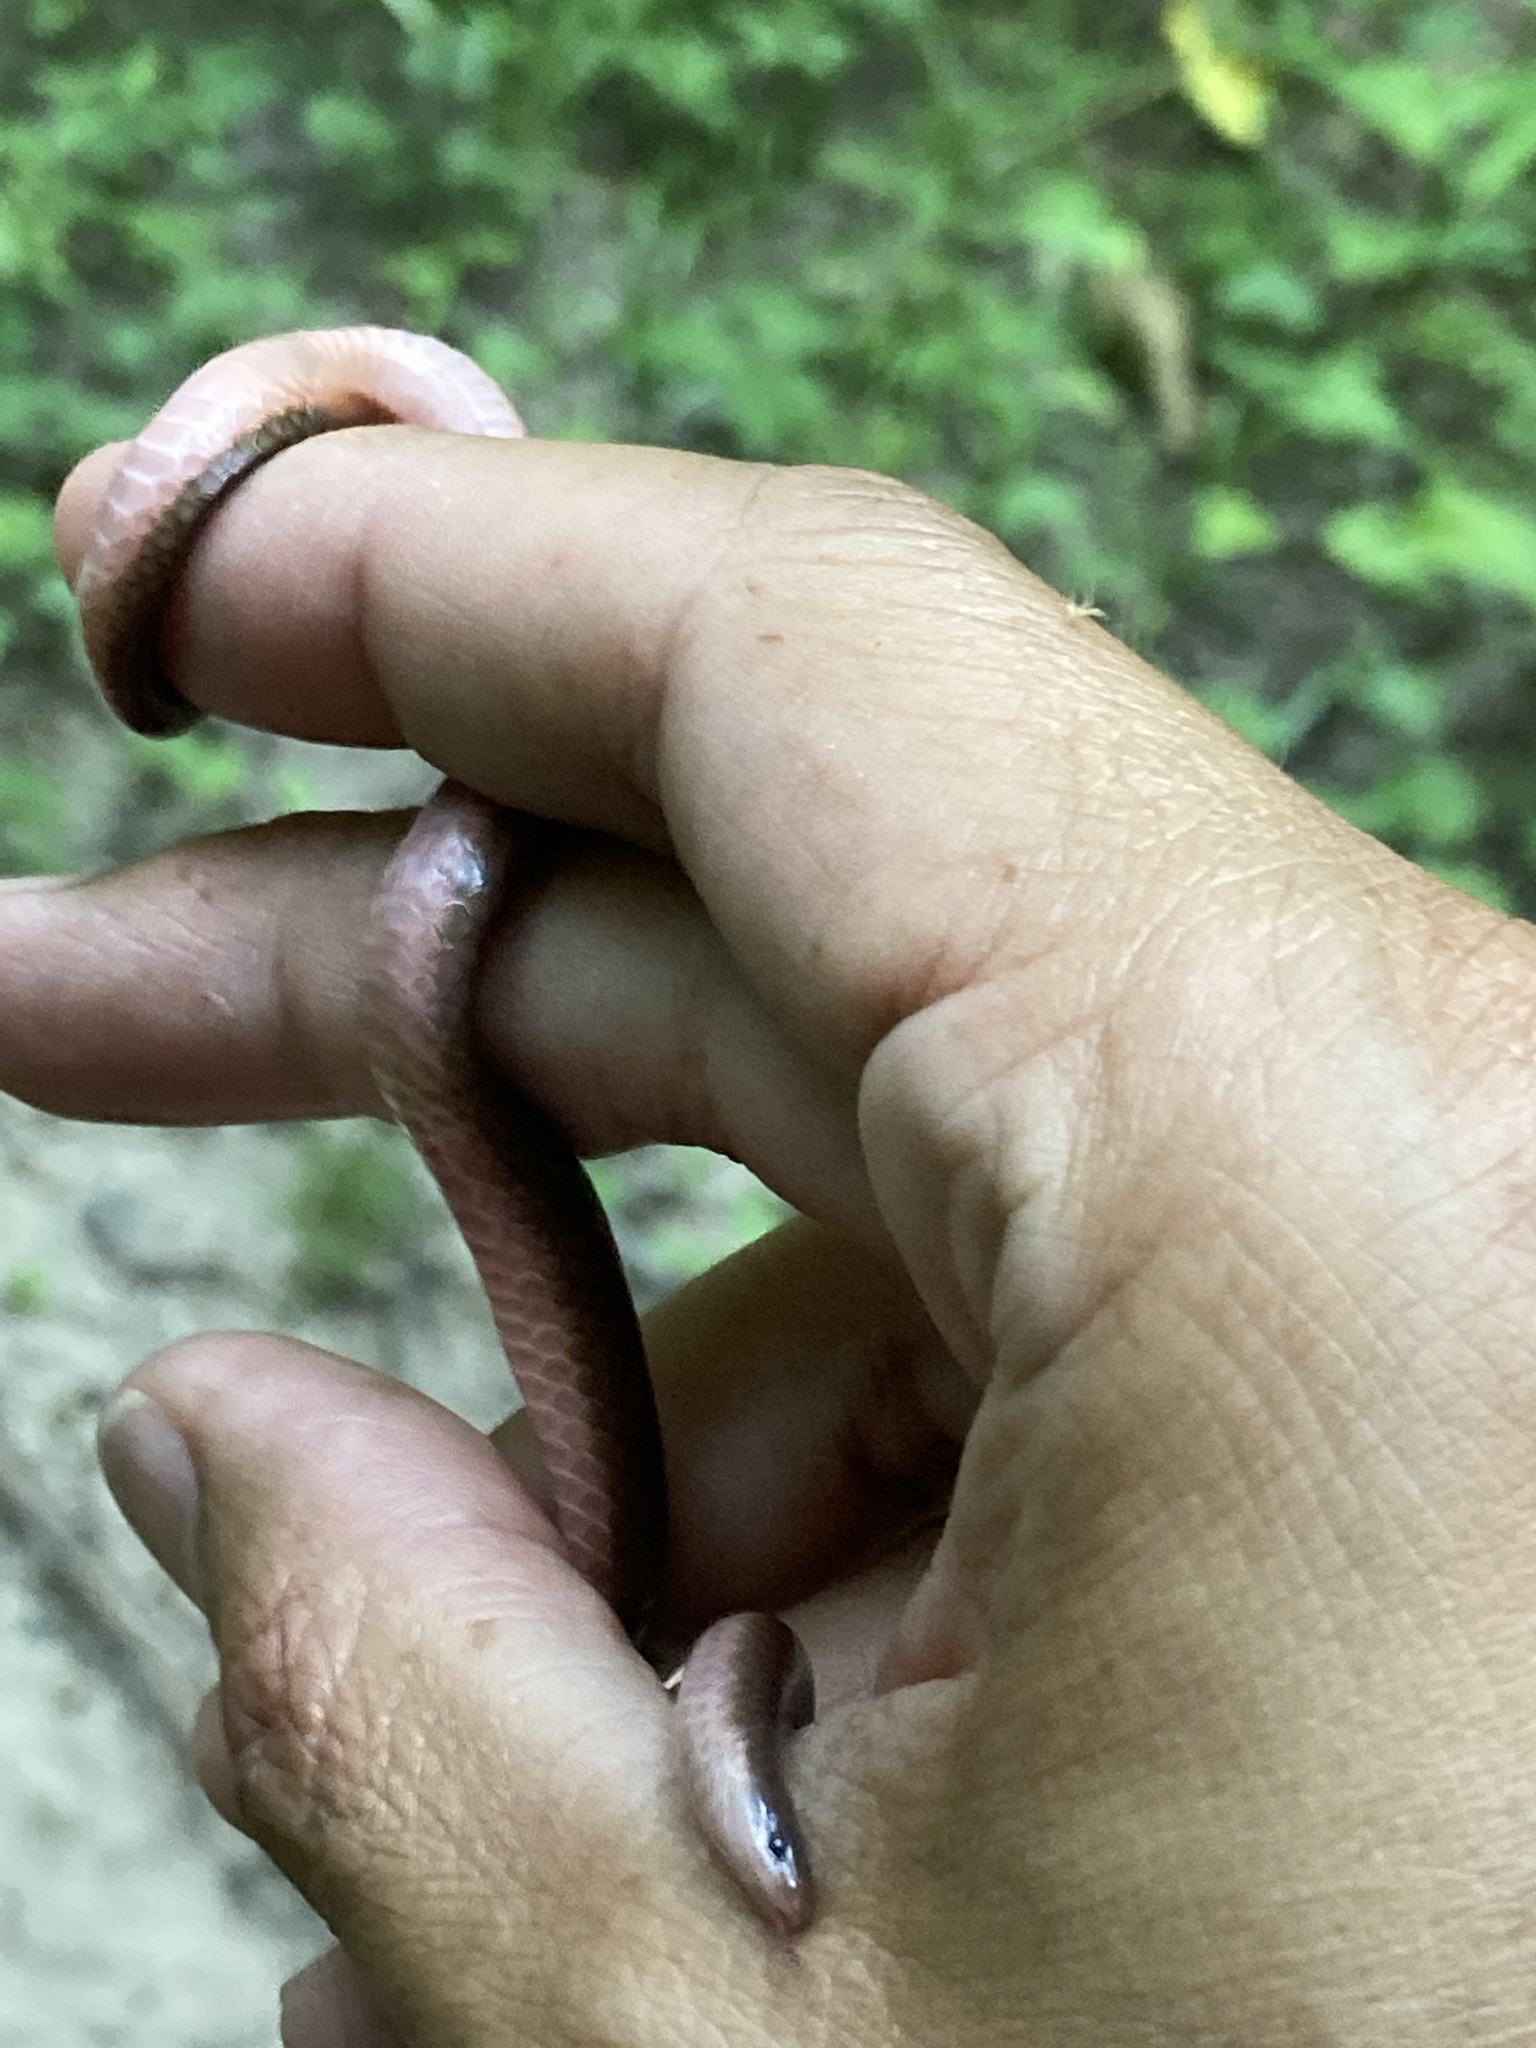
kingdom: Animalia
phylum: Chordata
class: Squamata
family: Colubridae
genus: Carphophis
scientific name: Carphophis amoenus
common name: Eastern worm snake
